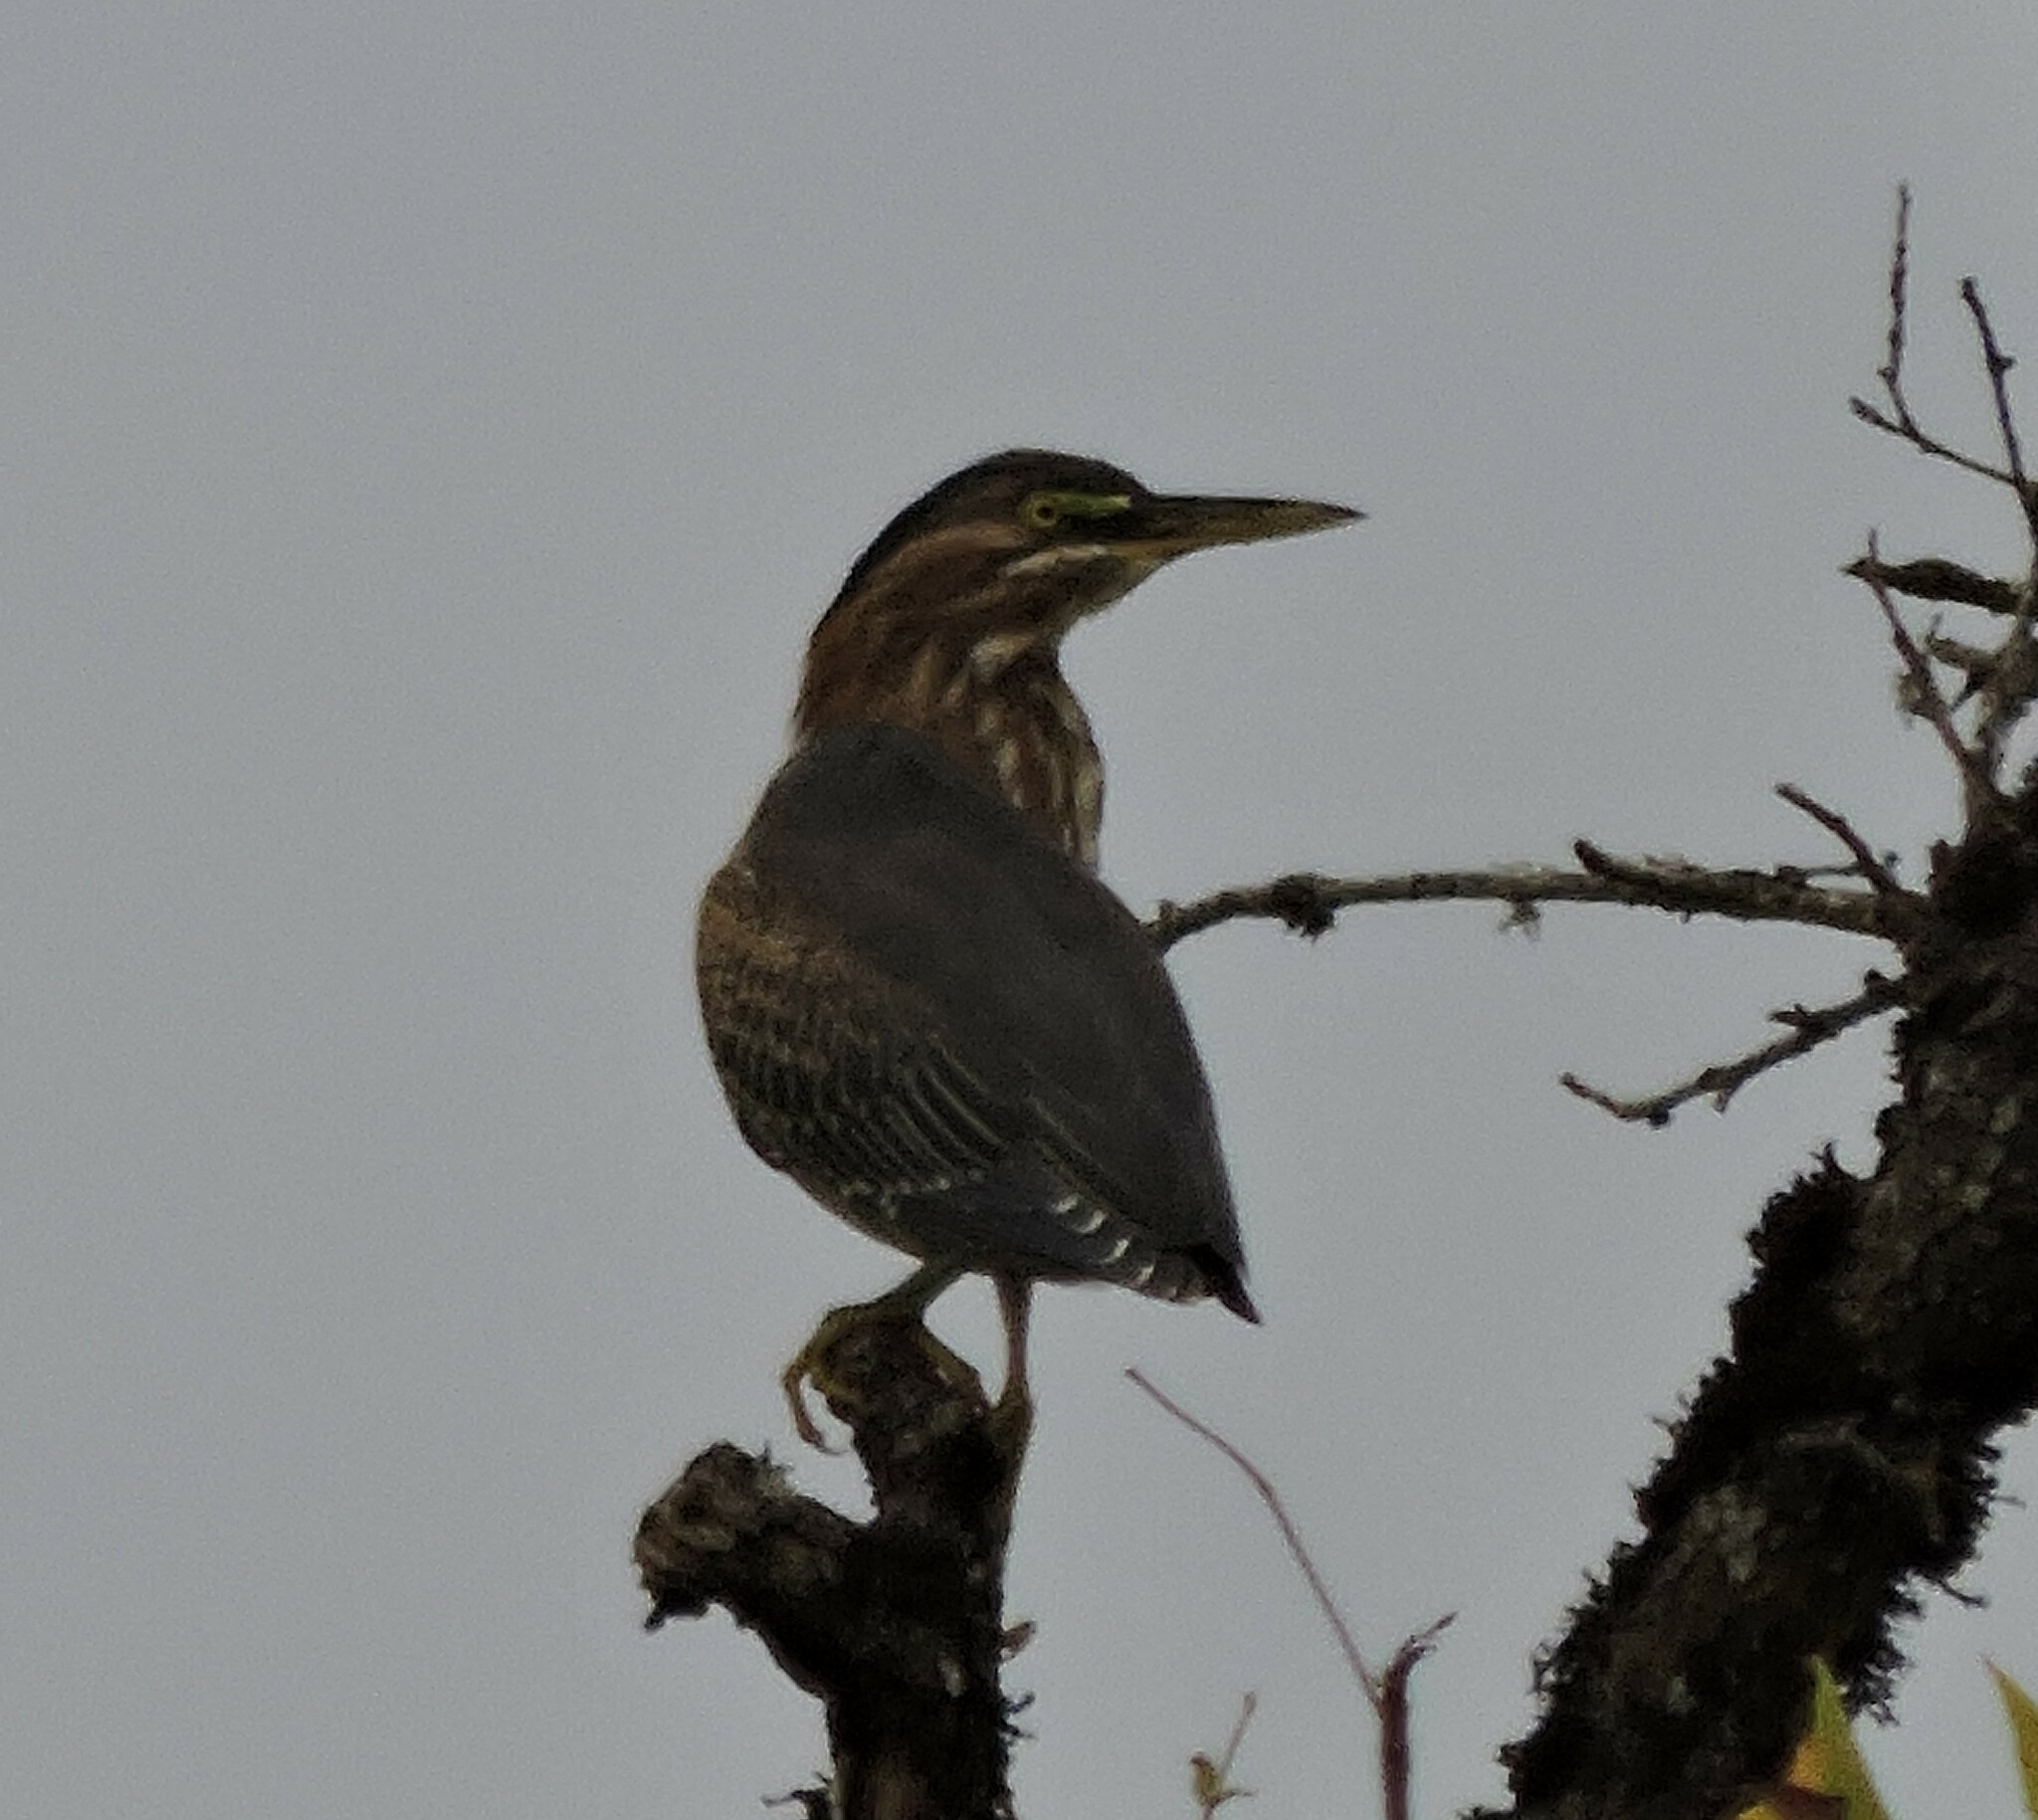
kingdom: Animalia
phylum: Chordata
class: Aves
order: Pelecaniformes
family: Ardeidae
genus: Butorides
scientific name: Butorides virescens
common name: Green heron
